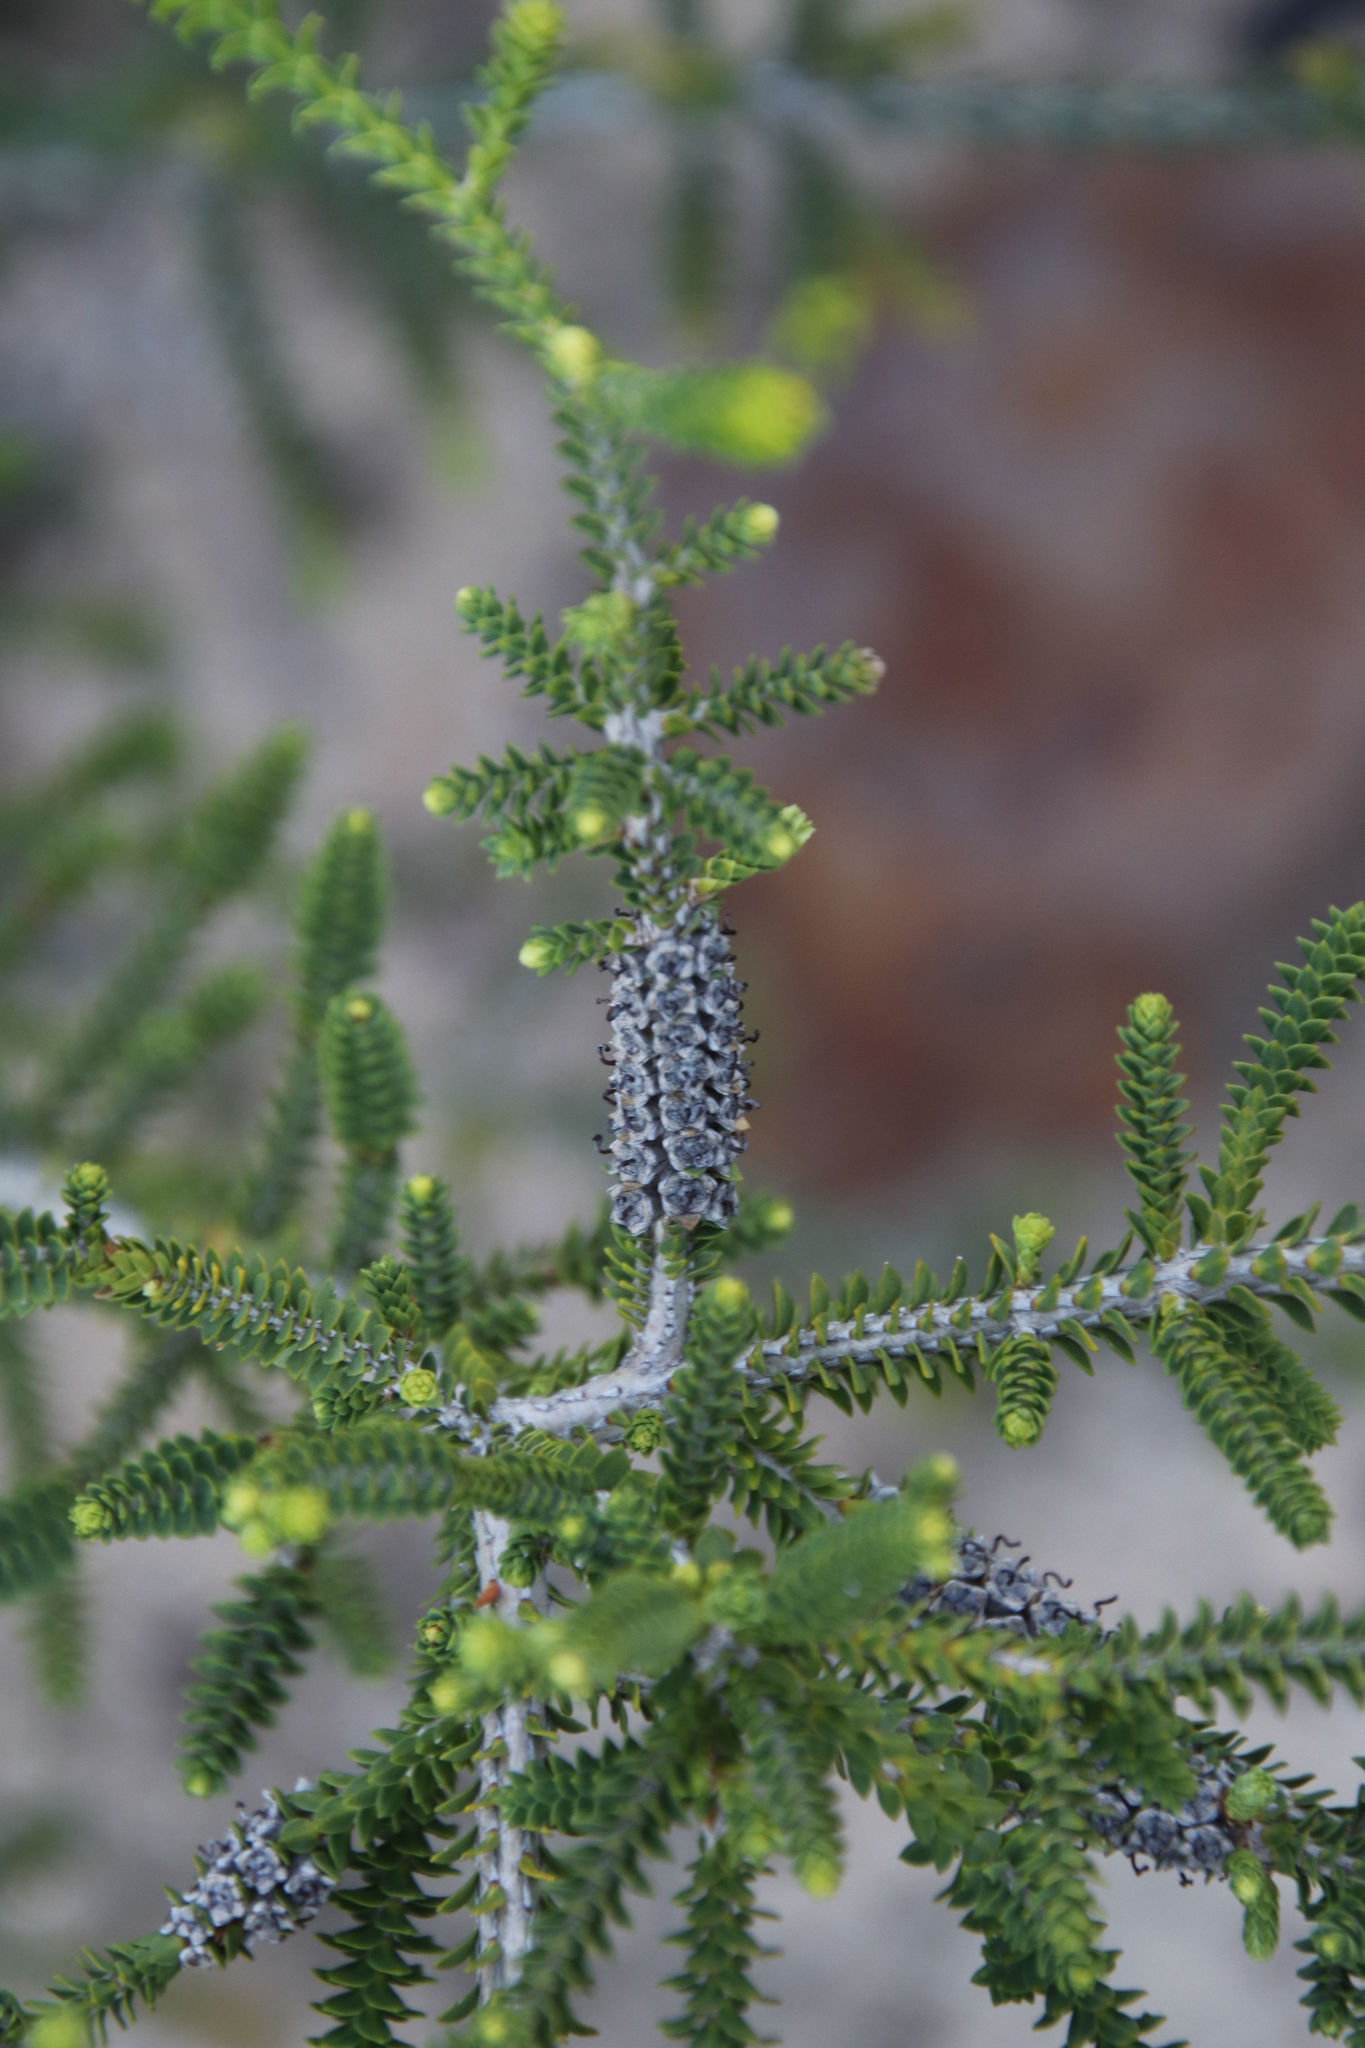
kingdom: Plantae
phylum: Tracheophyta
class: Magnoliopsida
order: Myrtales
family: Myrtaceae
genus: Melaleuca
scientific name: Melaleuca densa
